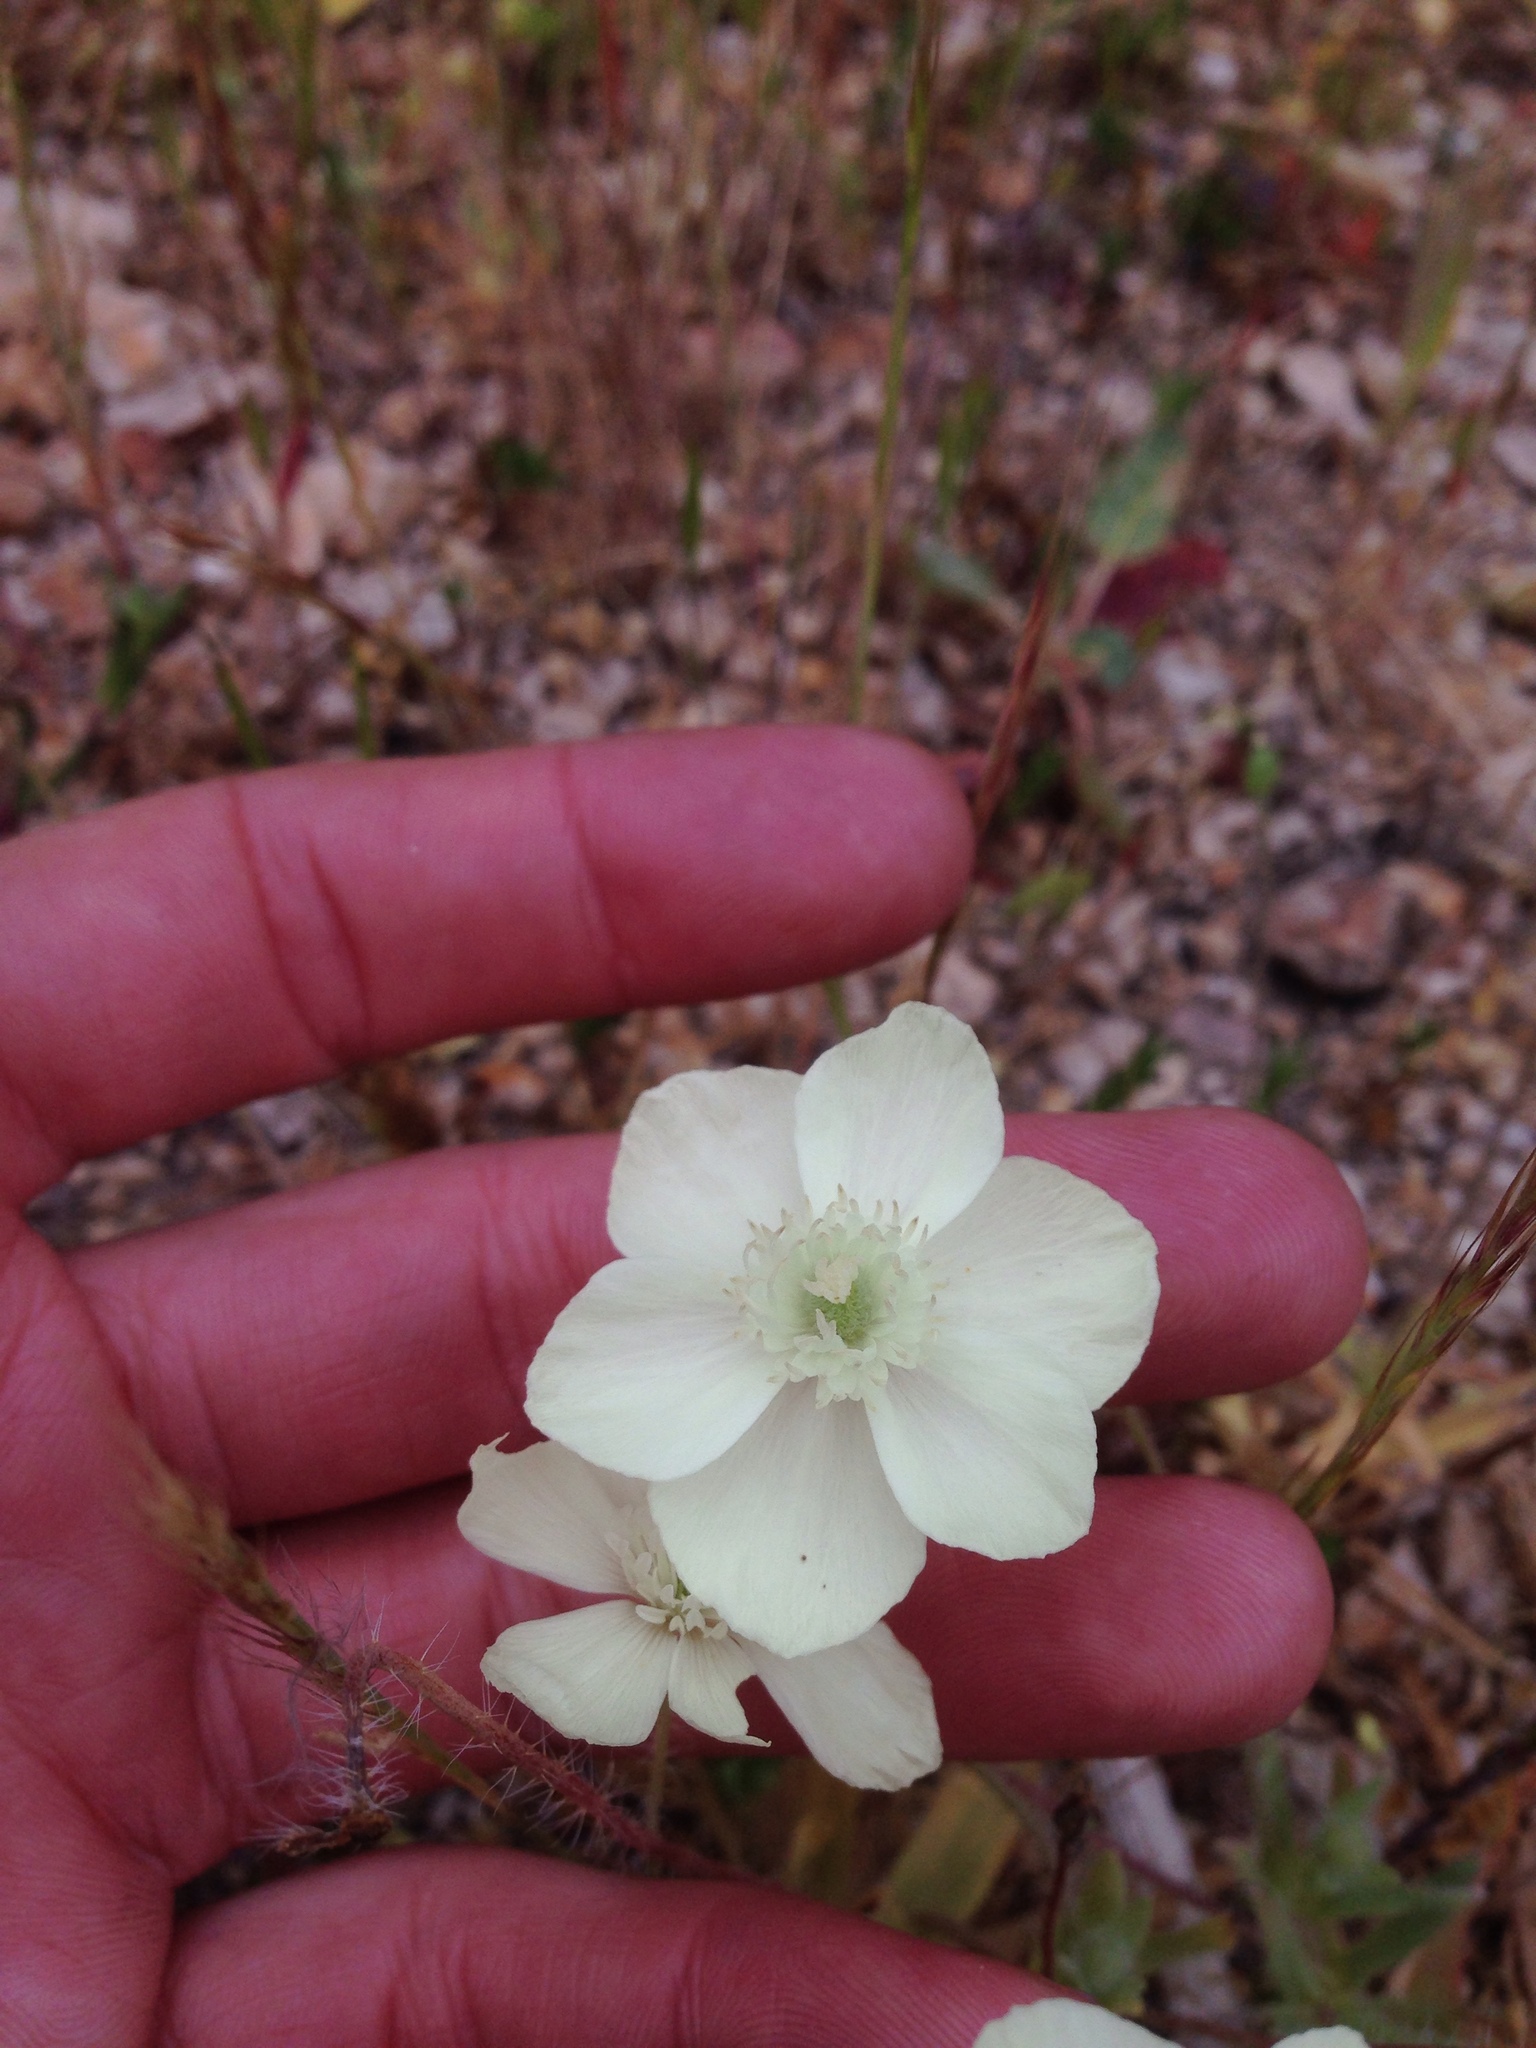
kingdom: Plantae
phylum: Tracheophyta
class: Magnoliopsida
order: Ranunculales
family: Papaveraceae
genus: Platystemon
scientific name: Platystemon californicus
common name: Cream-cups
